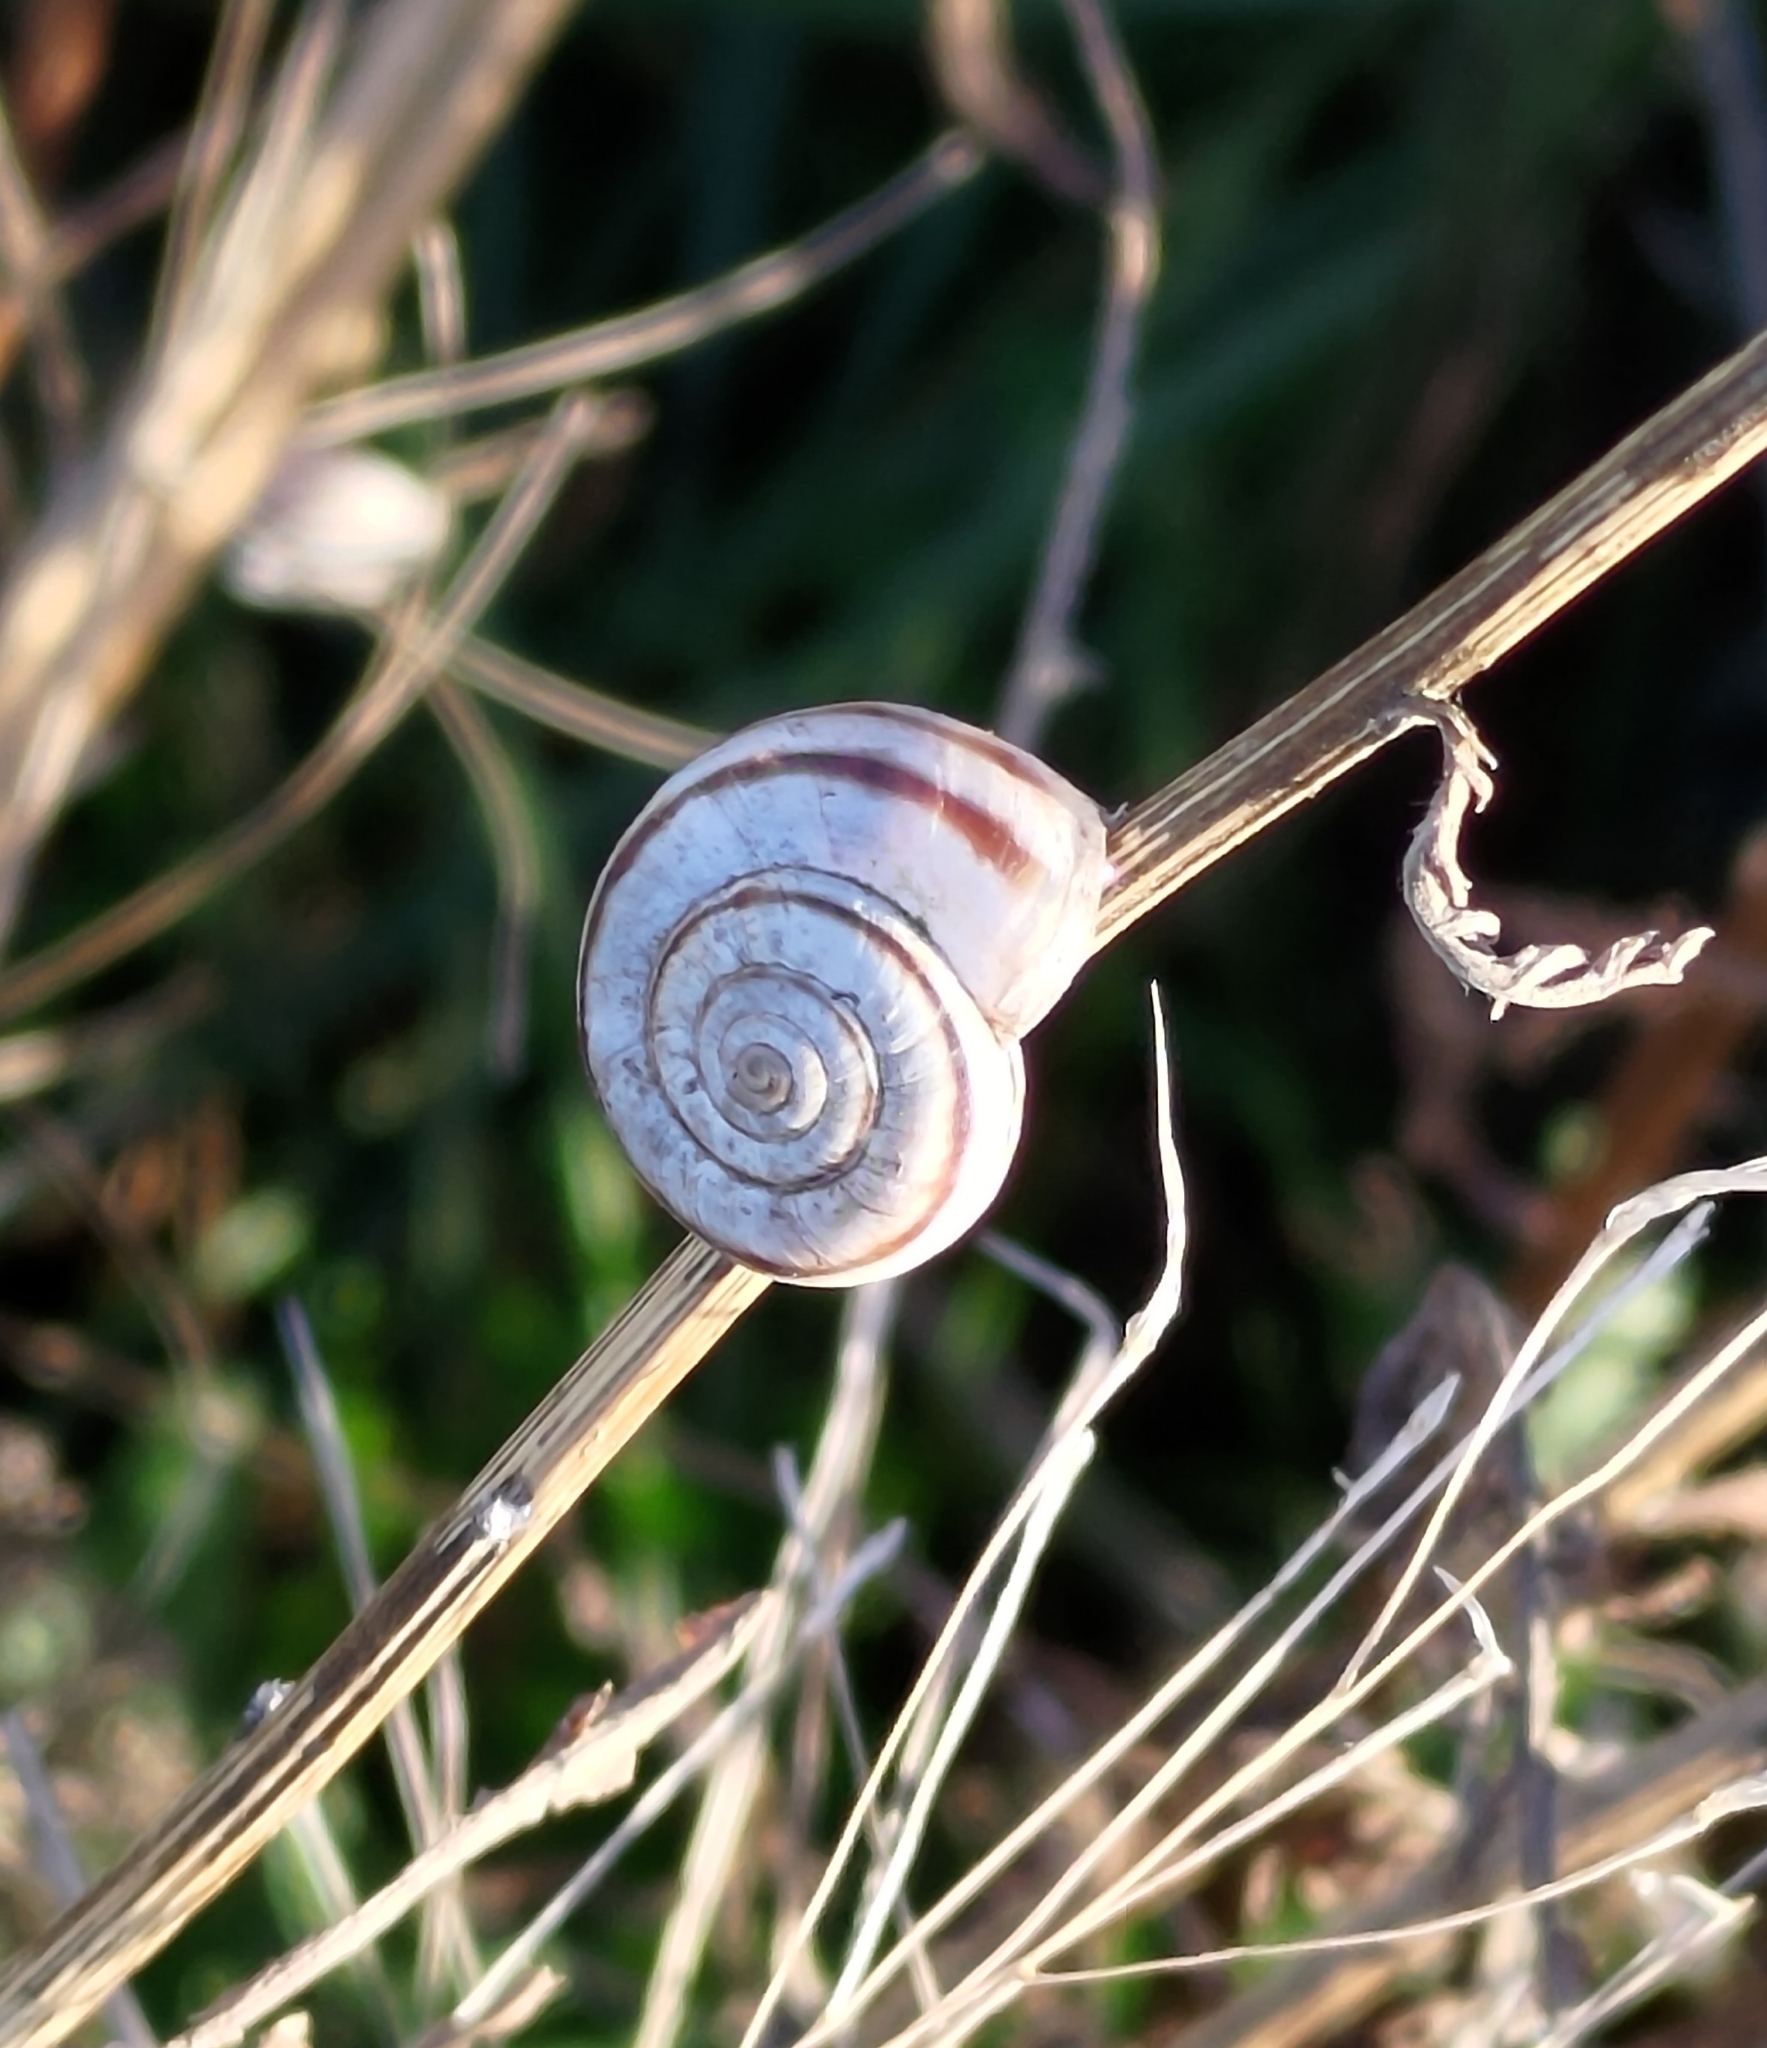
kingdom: Animalia
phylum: Mollusca
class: Gastropoda
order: Stylommatophora
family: Geomitridae
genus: Xerolenta
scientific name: Xerolenta obvia
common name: White heath snail
